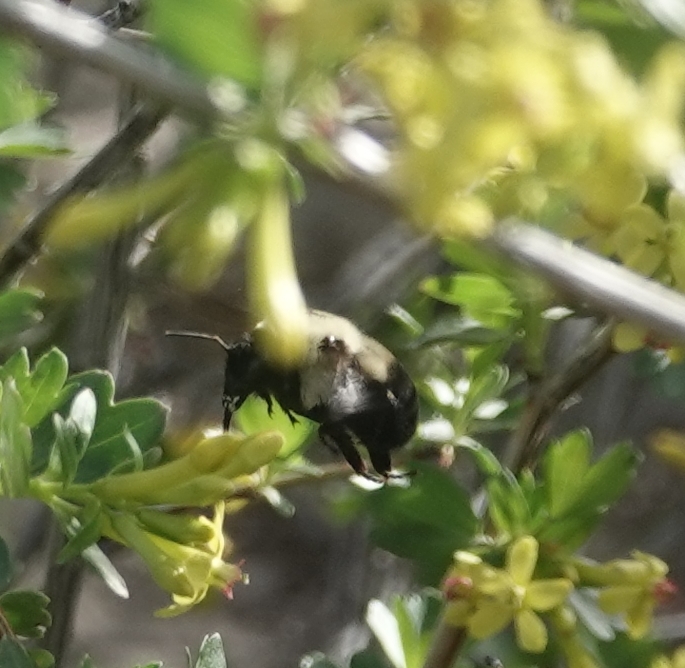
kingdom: Animalia
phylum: Arthropoda
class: Insecta
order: Hymenoptera
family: Apidae
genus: Bombus
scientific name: Bombus griseocollis
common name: Brown-belted bumble bee
